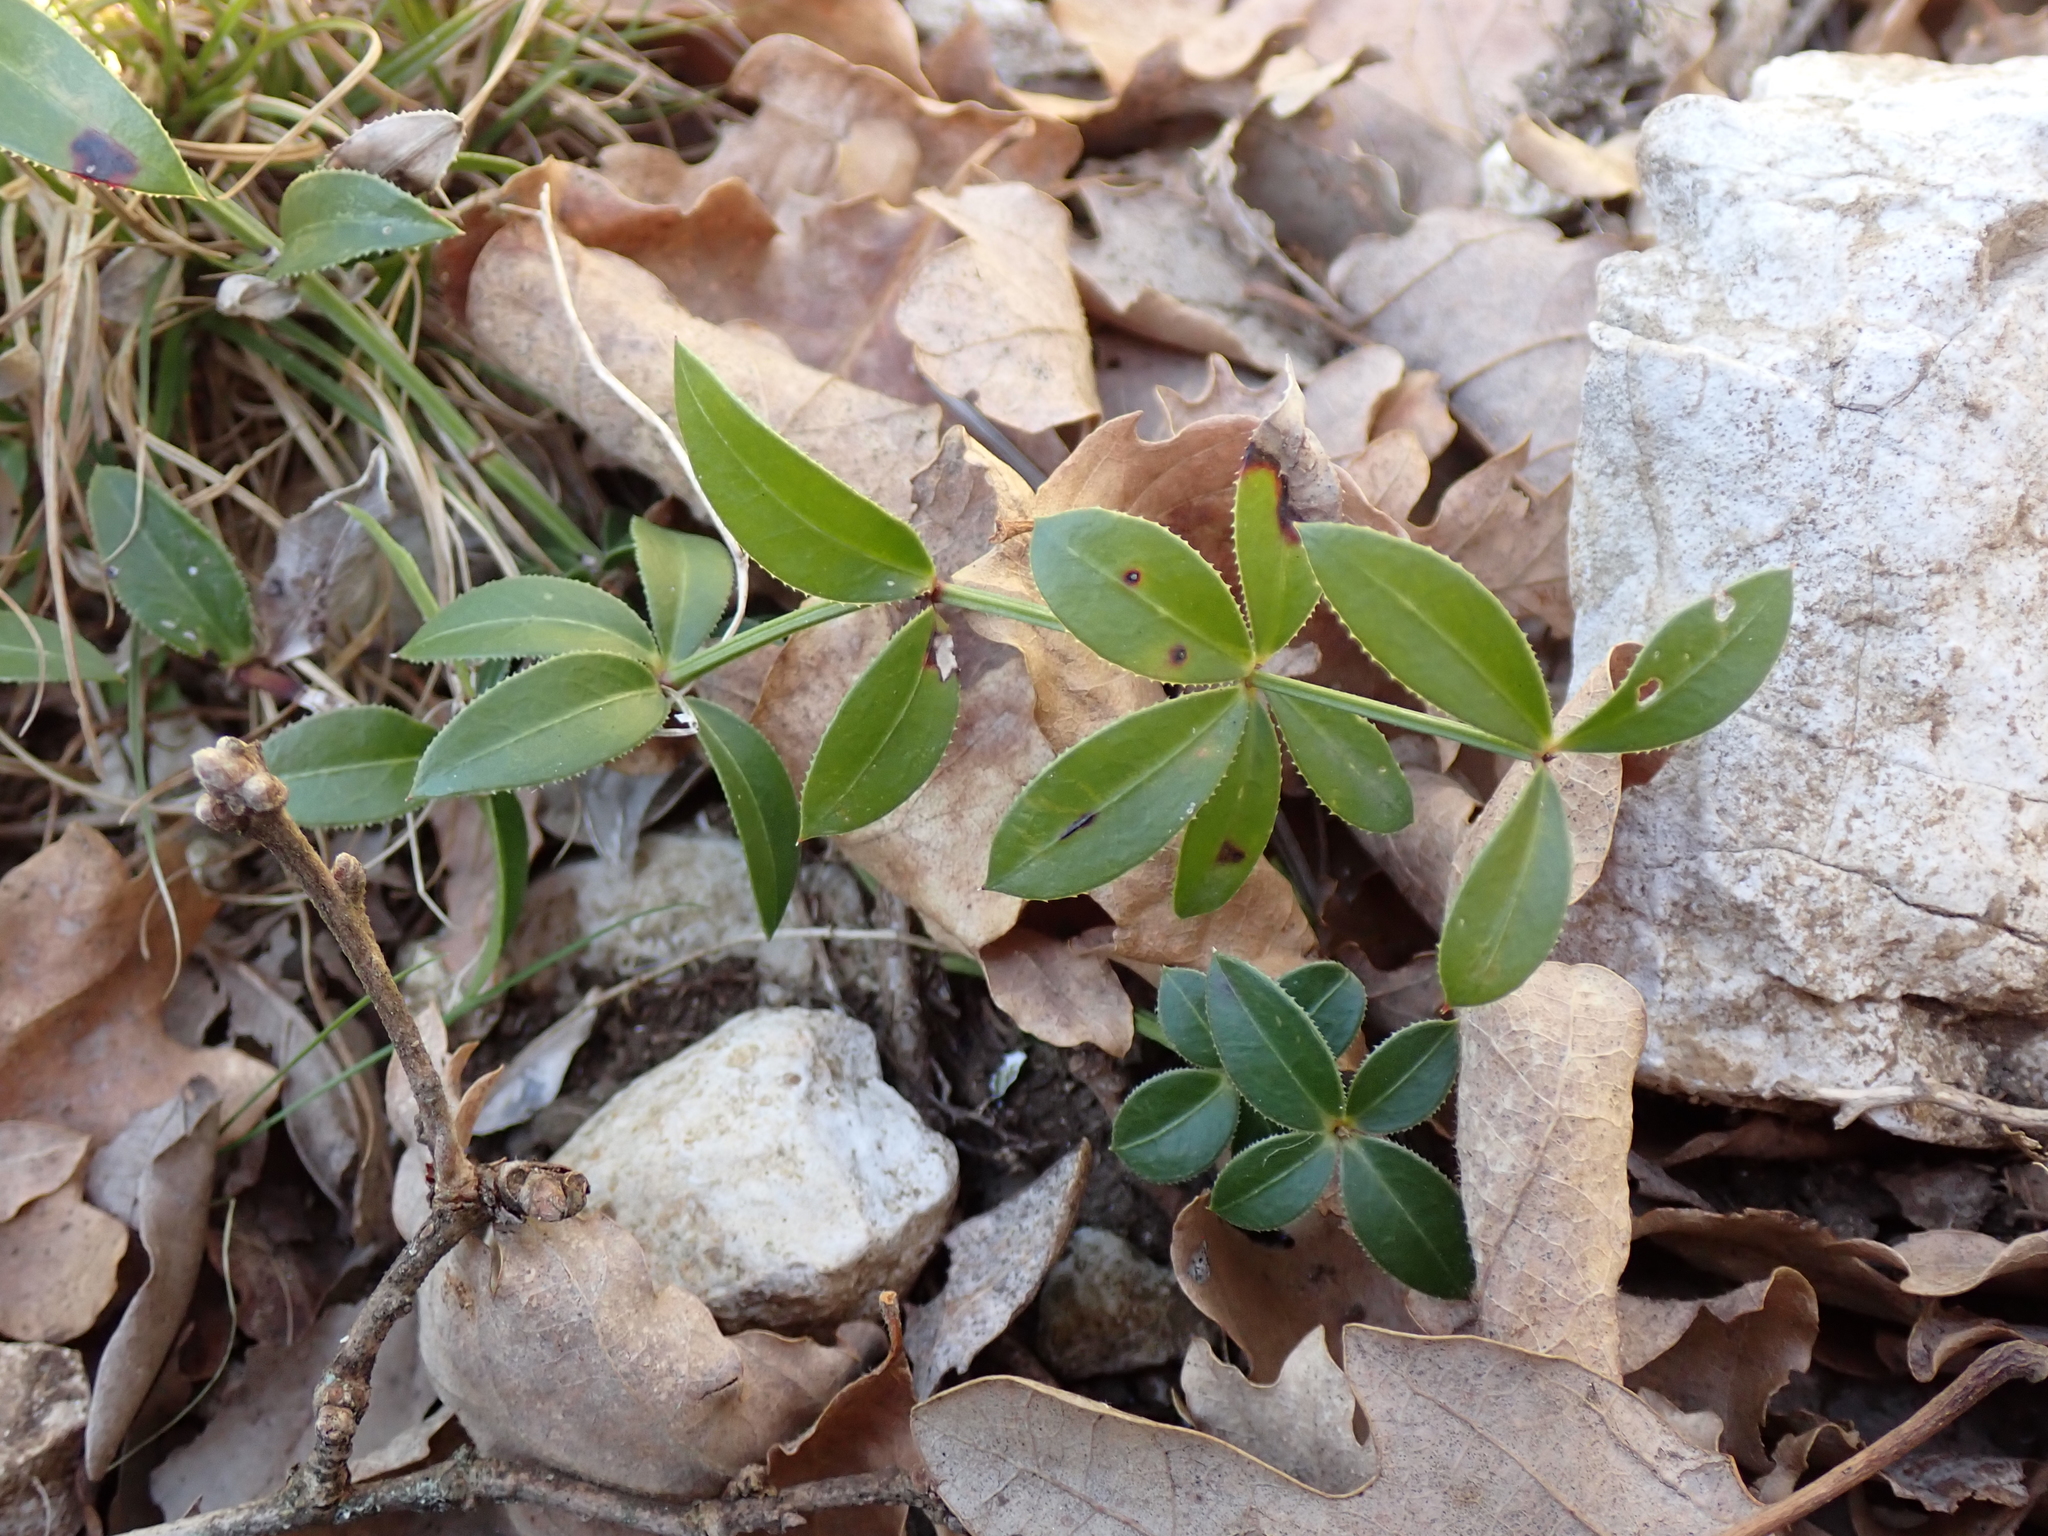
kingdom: Plantae
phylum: Tracheophyta
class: Magnoliopsida
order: Gentianales
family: Rubiaceae
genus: Rubia
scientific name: Rubia peregrina
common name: Wild madder
